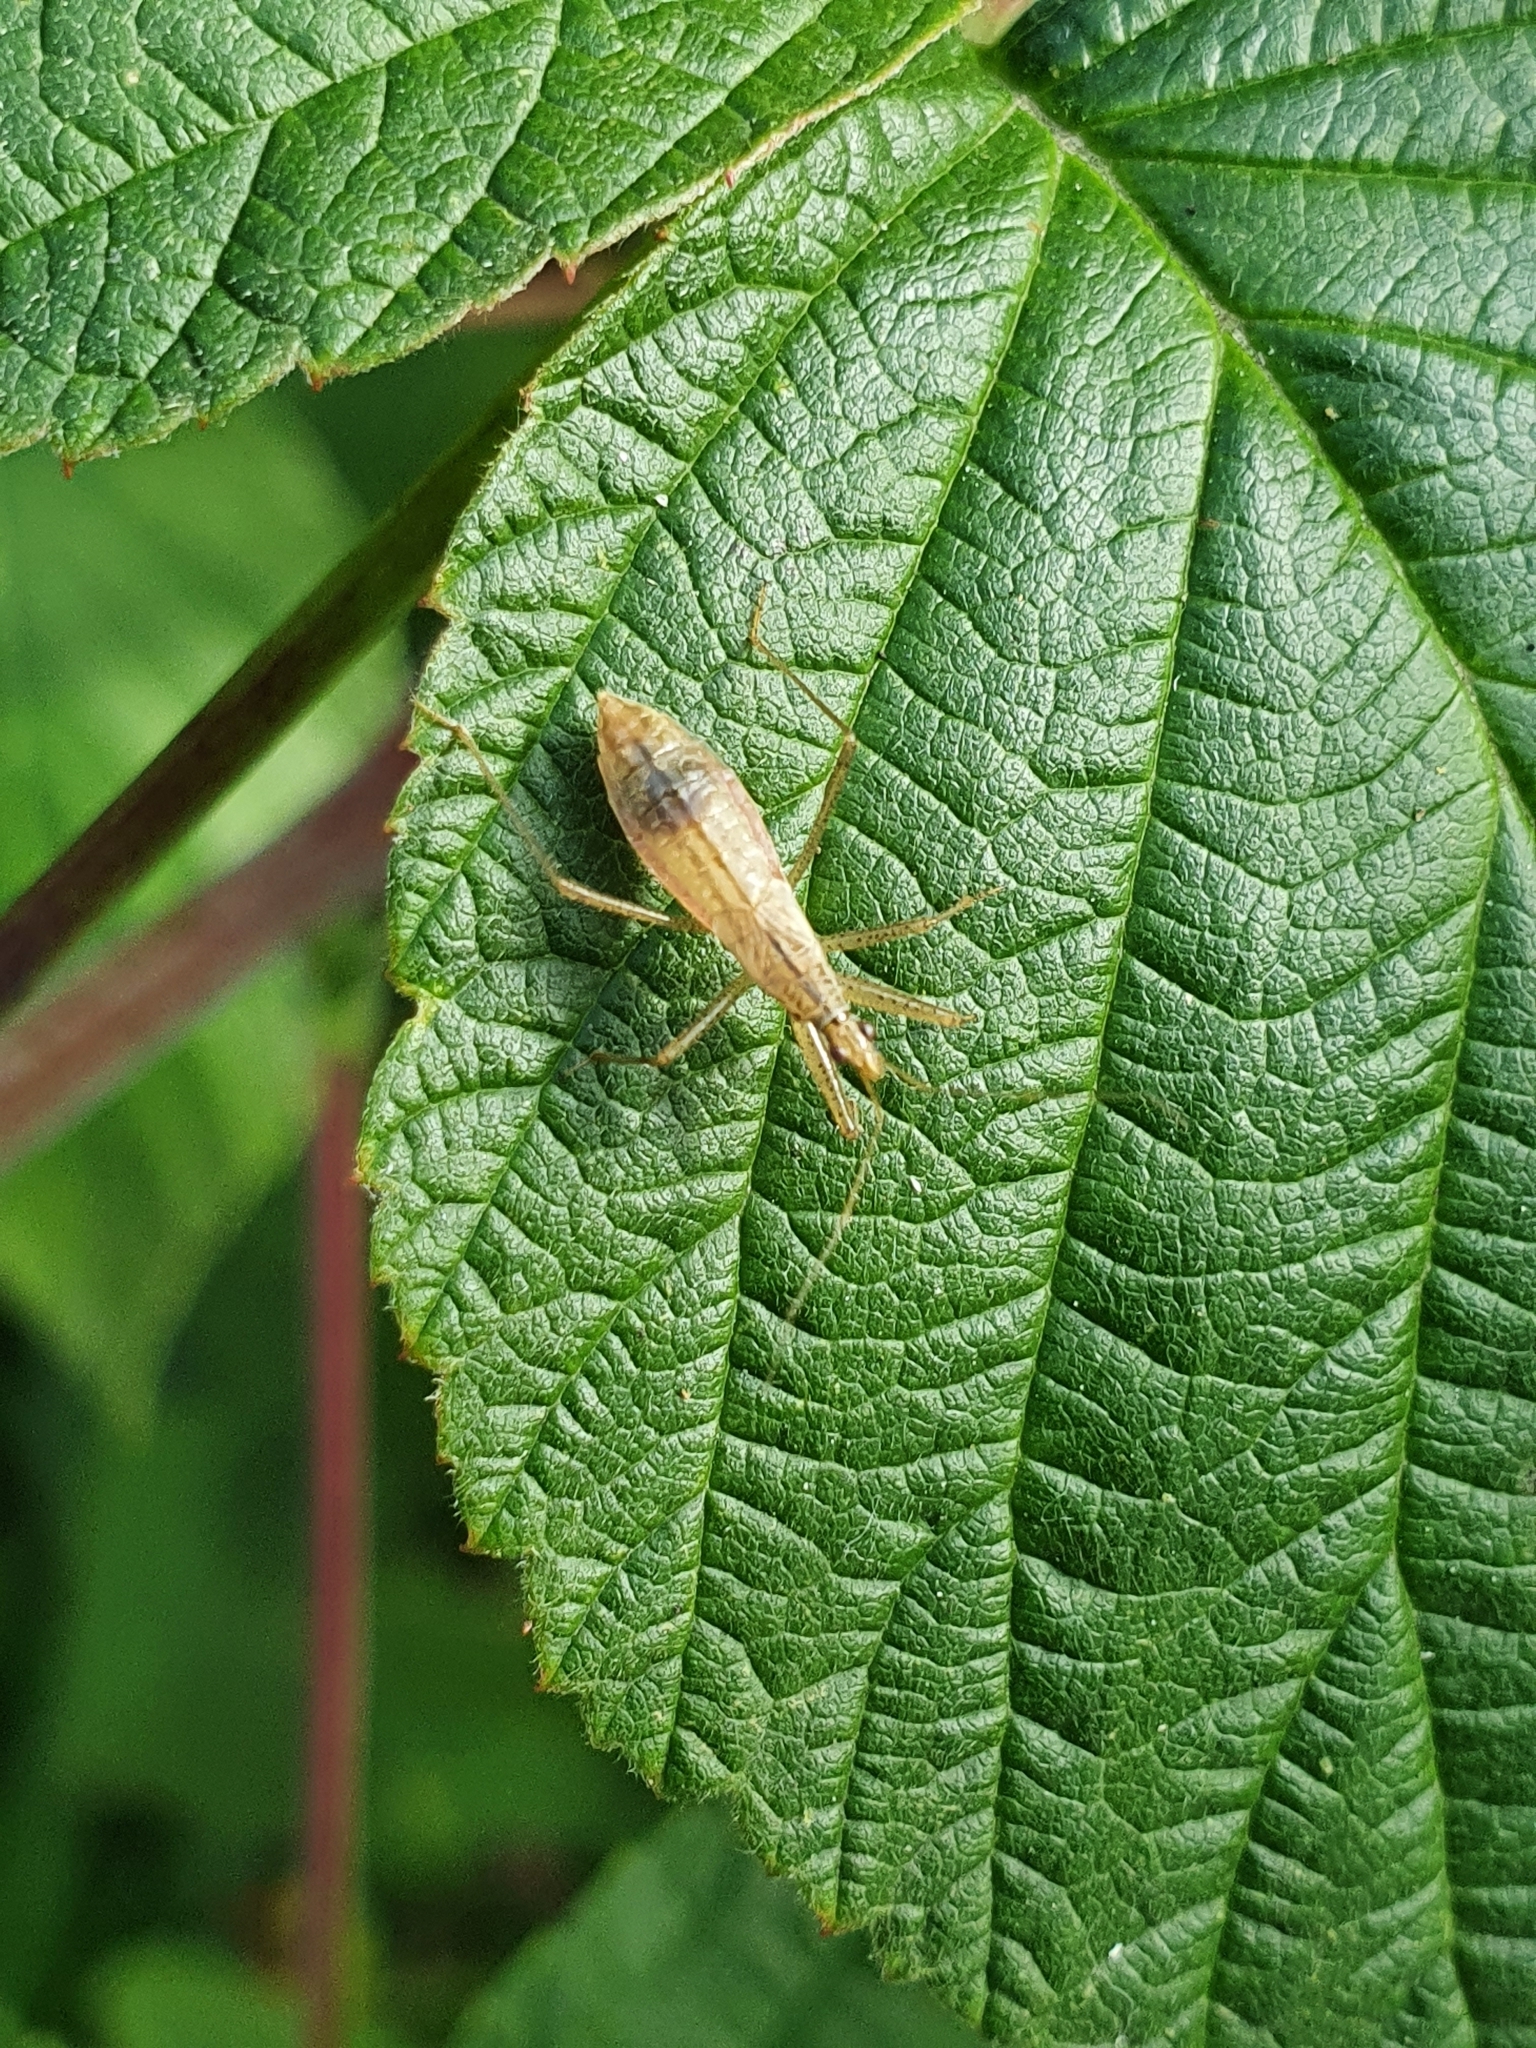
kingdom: Animalia
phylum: Arthropoda
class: Insecta
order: Hemiptera
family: Nabidae
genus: Nabis
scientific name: Nabis limbatus
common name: Marsh damselbug
